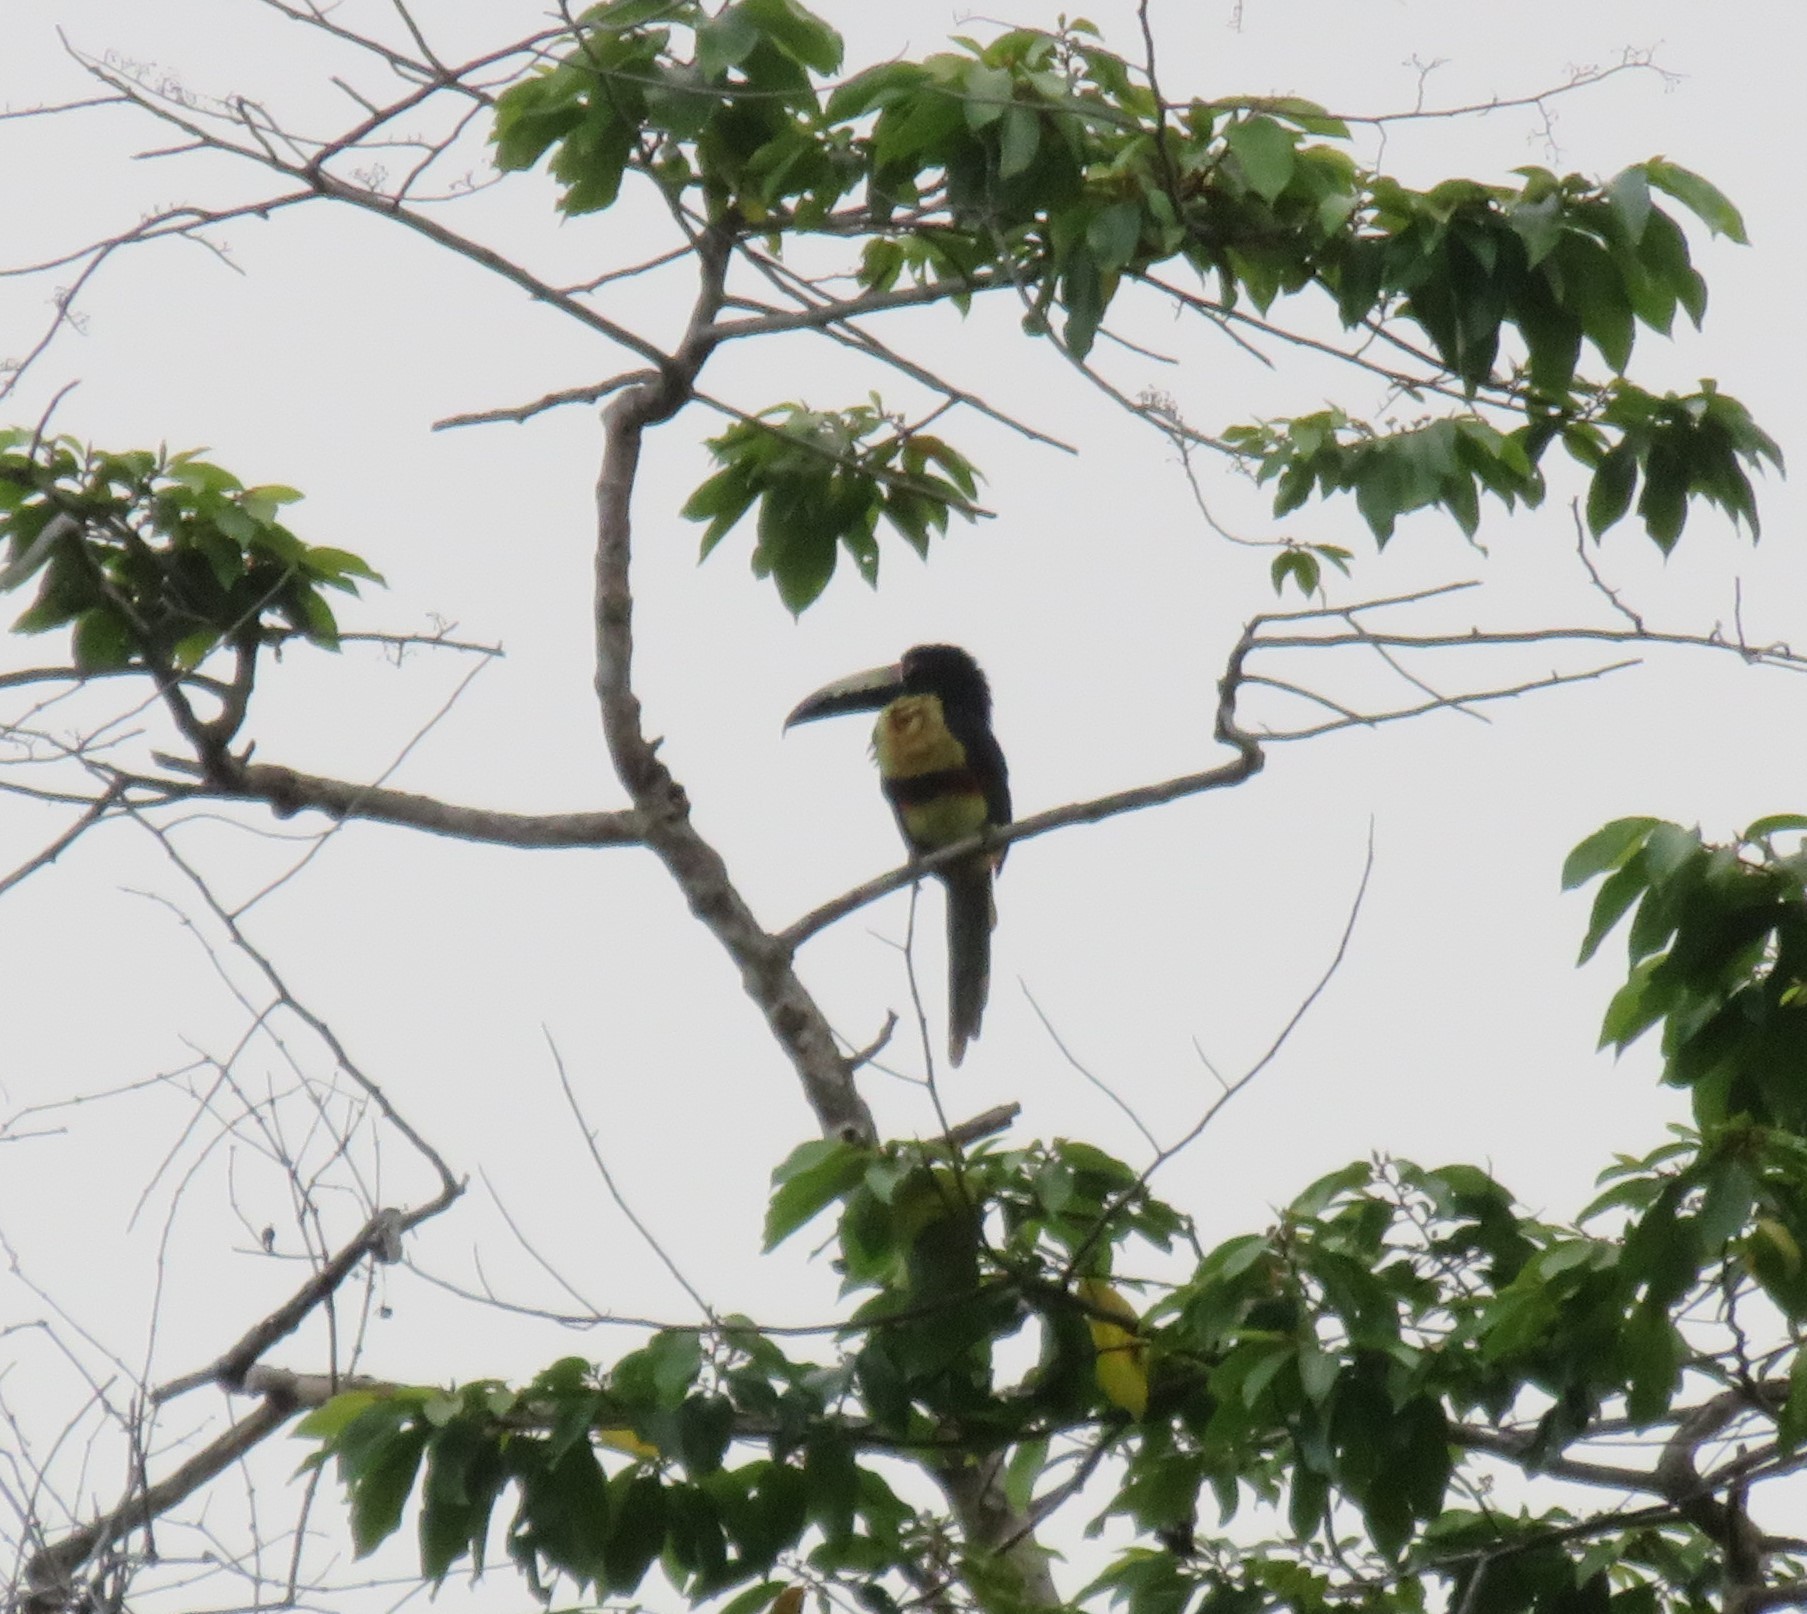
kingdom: Animalia
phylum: Chordata
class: Aves
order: Piciformes
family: Ramphastidae
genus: Pteroglossus
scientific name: Pteroglossus torquatus
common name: Collared aracari
